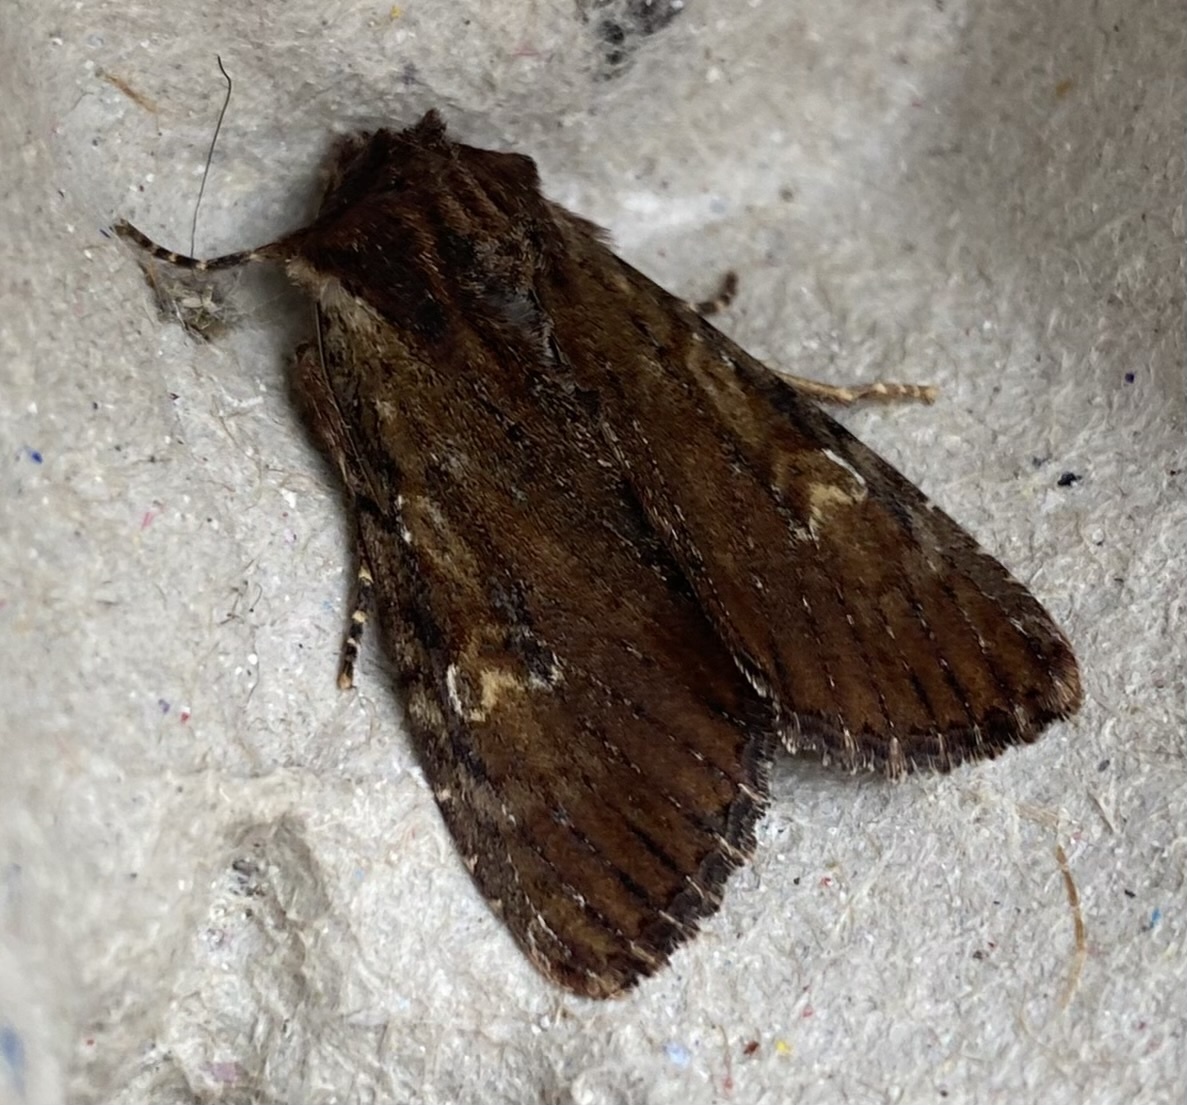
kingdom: Animalia
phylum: Arthropoda
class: Insecta
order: Lepidoptera
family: Noctuidae
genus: Apamea
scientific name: Apamea crenata
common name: Clouded-bordered brindle
